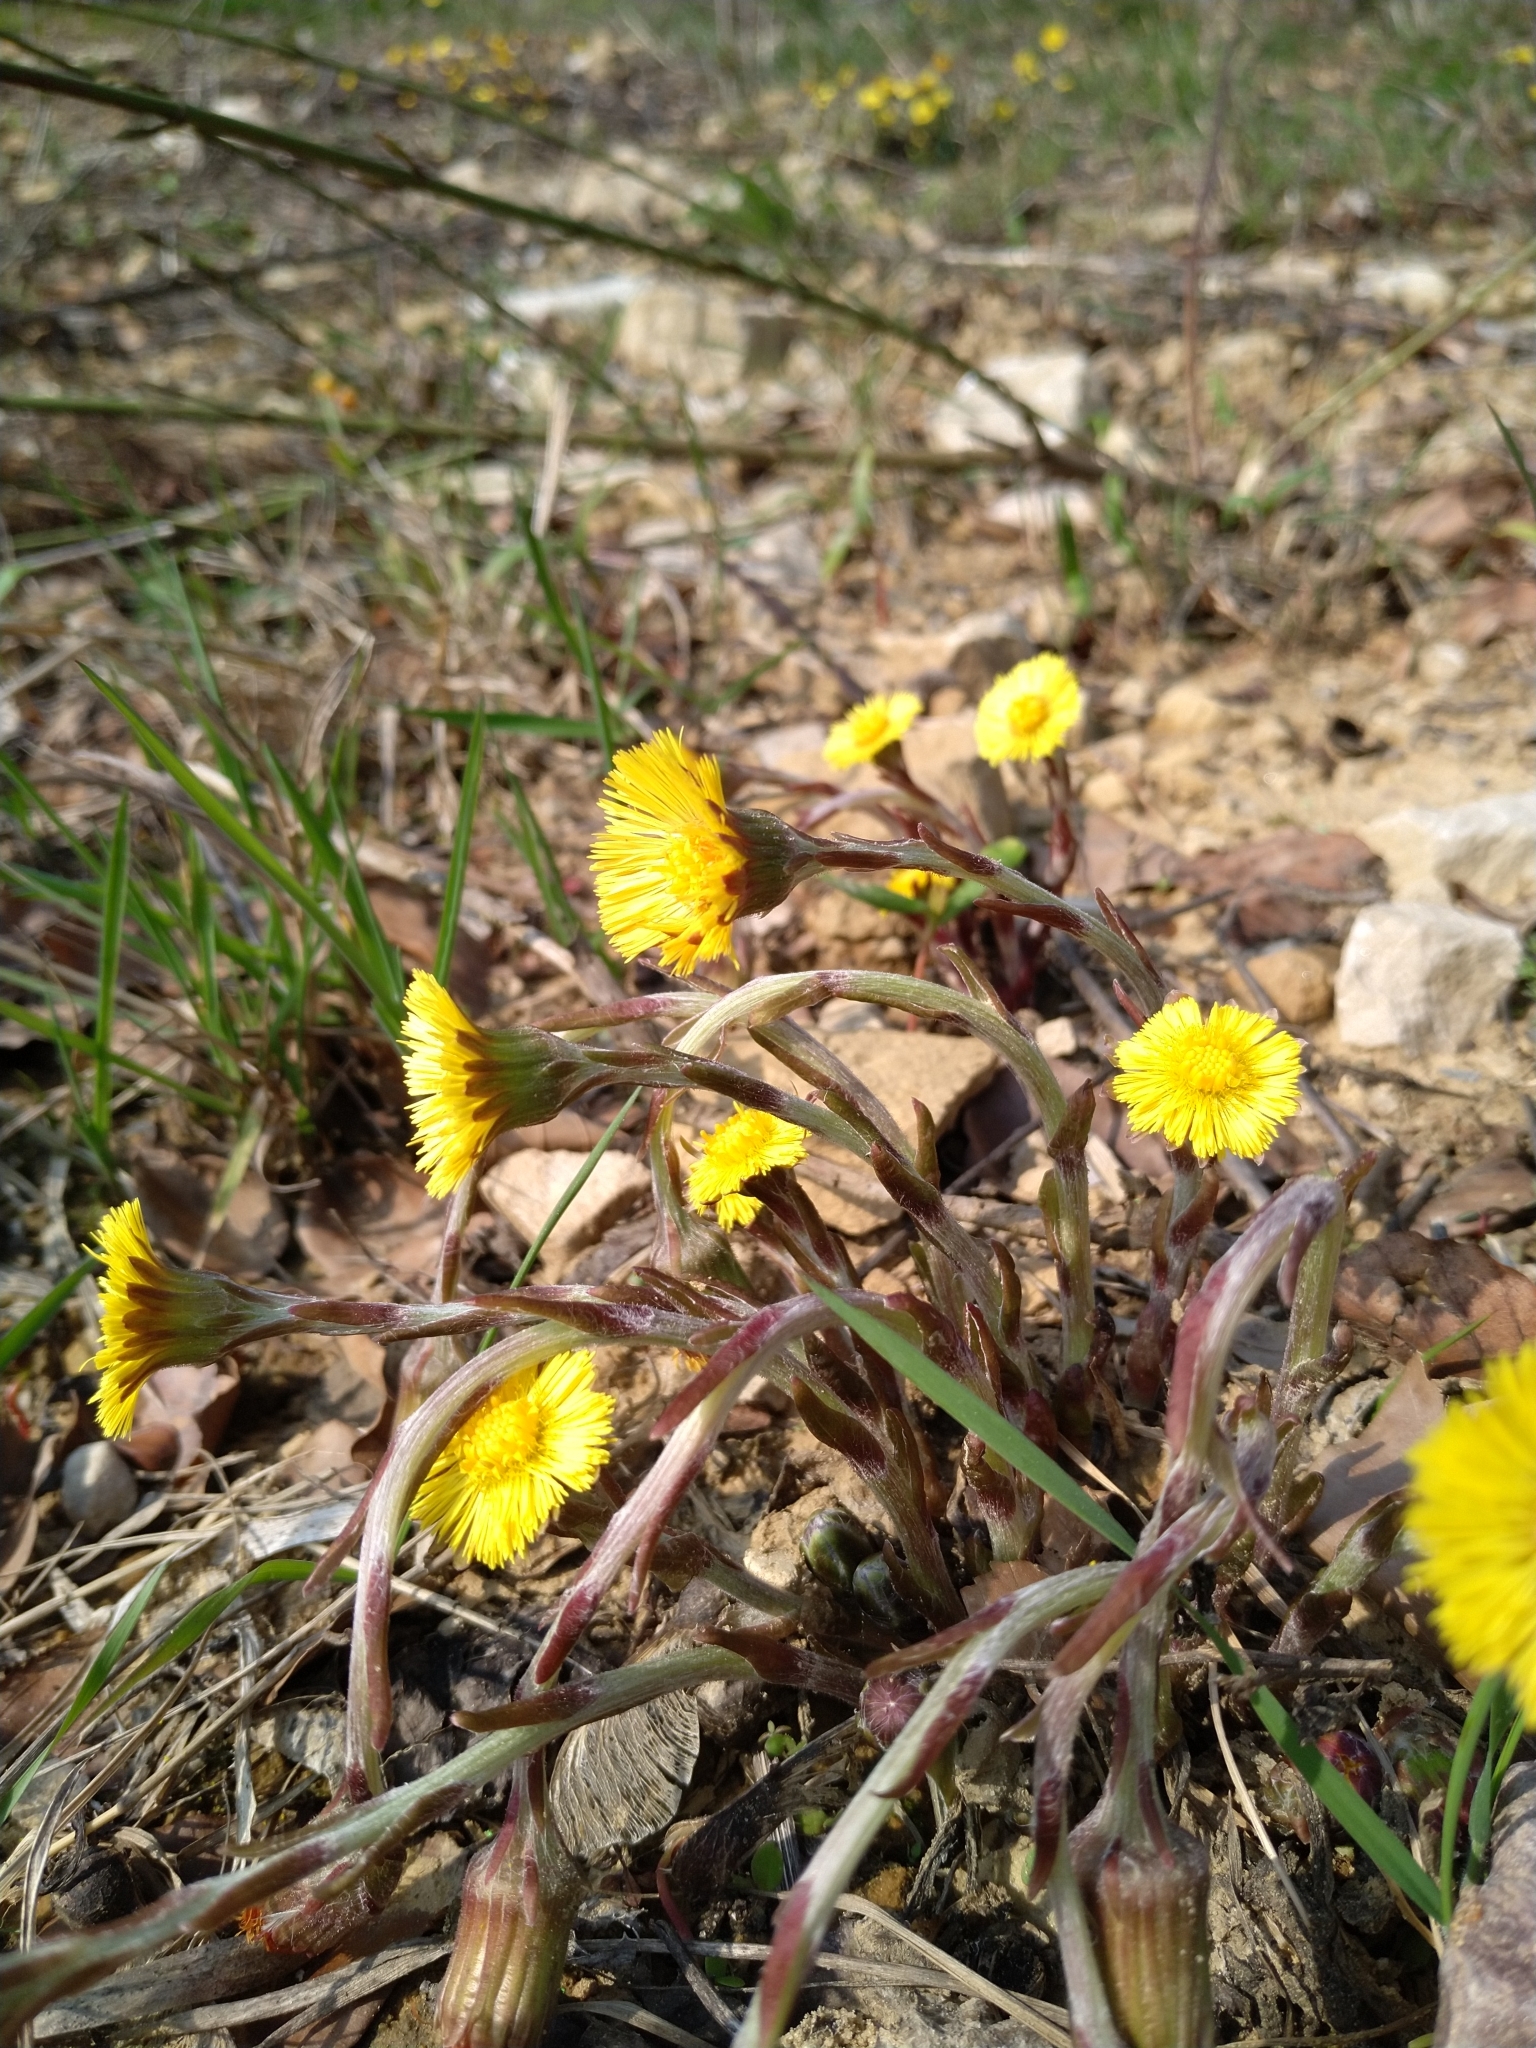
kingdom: Plantae
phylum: Tracheophyta
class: Magnoliopsida
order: Asterales
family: Asteraceae
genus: Tussilago
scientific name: Tussilago farfara
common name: Coltsfoot
